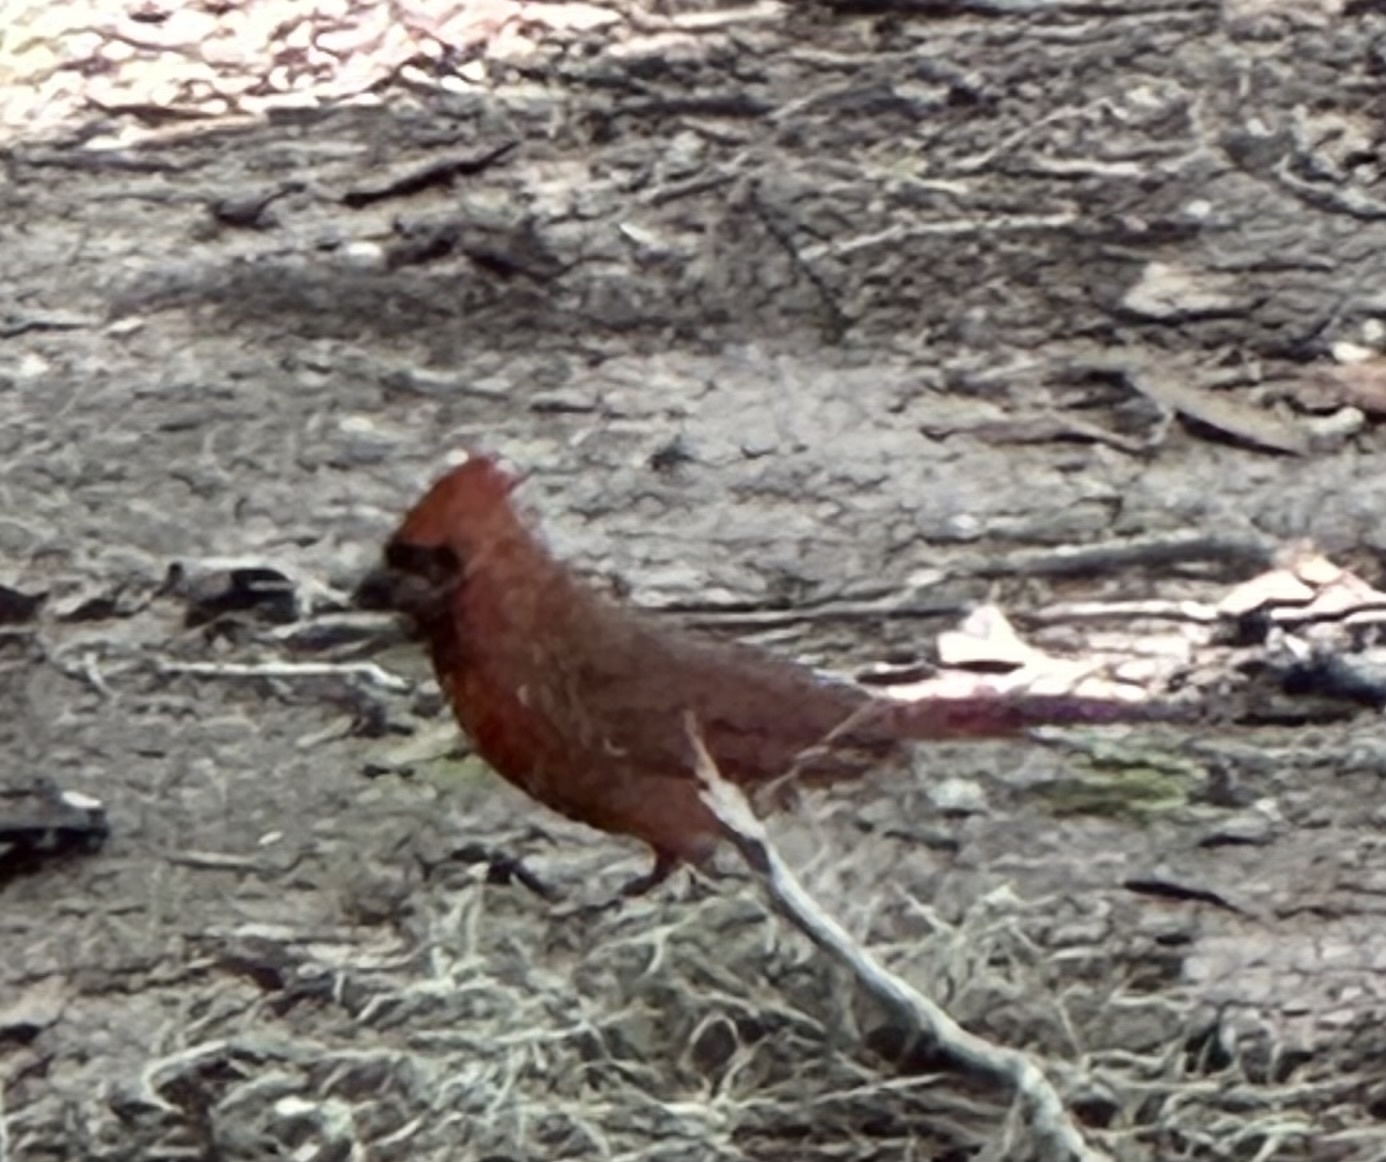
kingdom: Animalia
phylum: Chordata
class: Aves
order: Passeriformes
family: Cardinalidae
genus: Cardinalis
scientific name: Cardinalis cardinalis
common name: Northern cardinal
